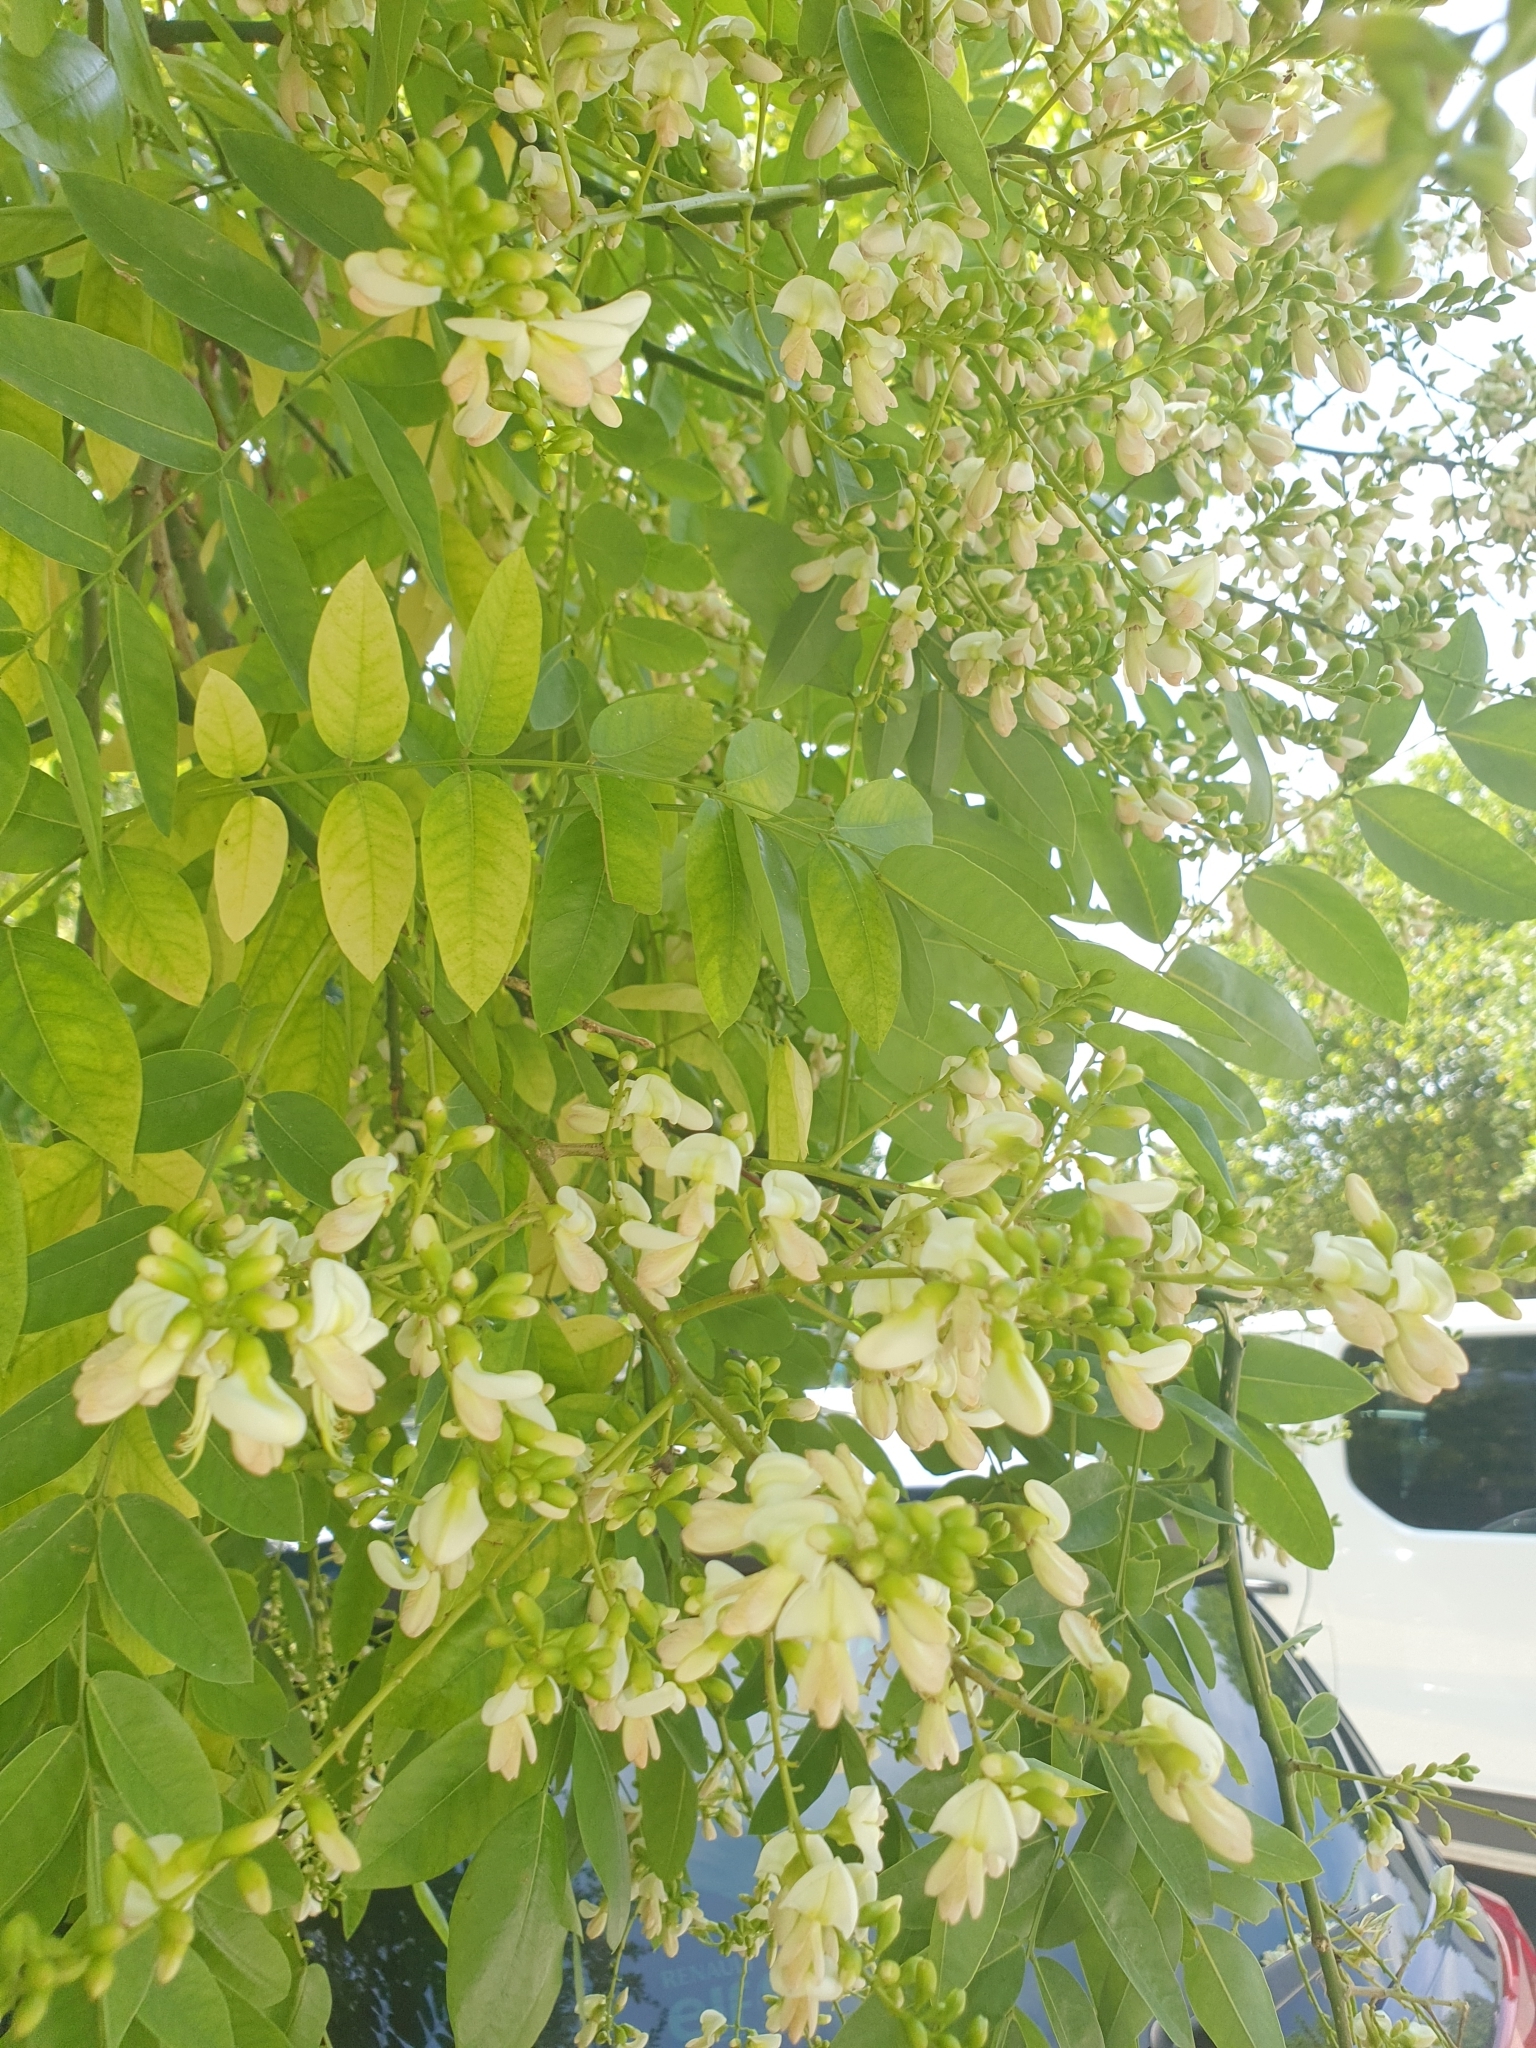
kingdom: Plantae
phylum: Tracheophyta
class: Magnoliopsida
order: Fabales
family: Fabaceae
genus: Robinia
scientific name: Robinia pseudoacacia
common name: Black locust
